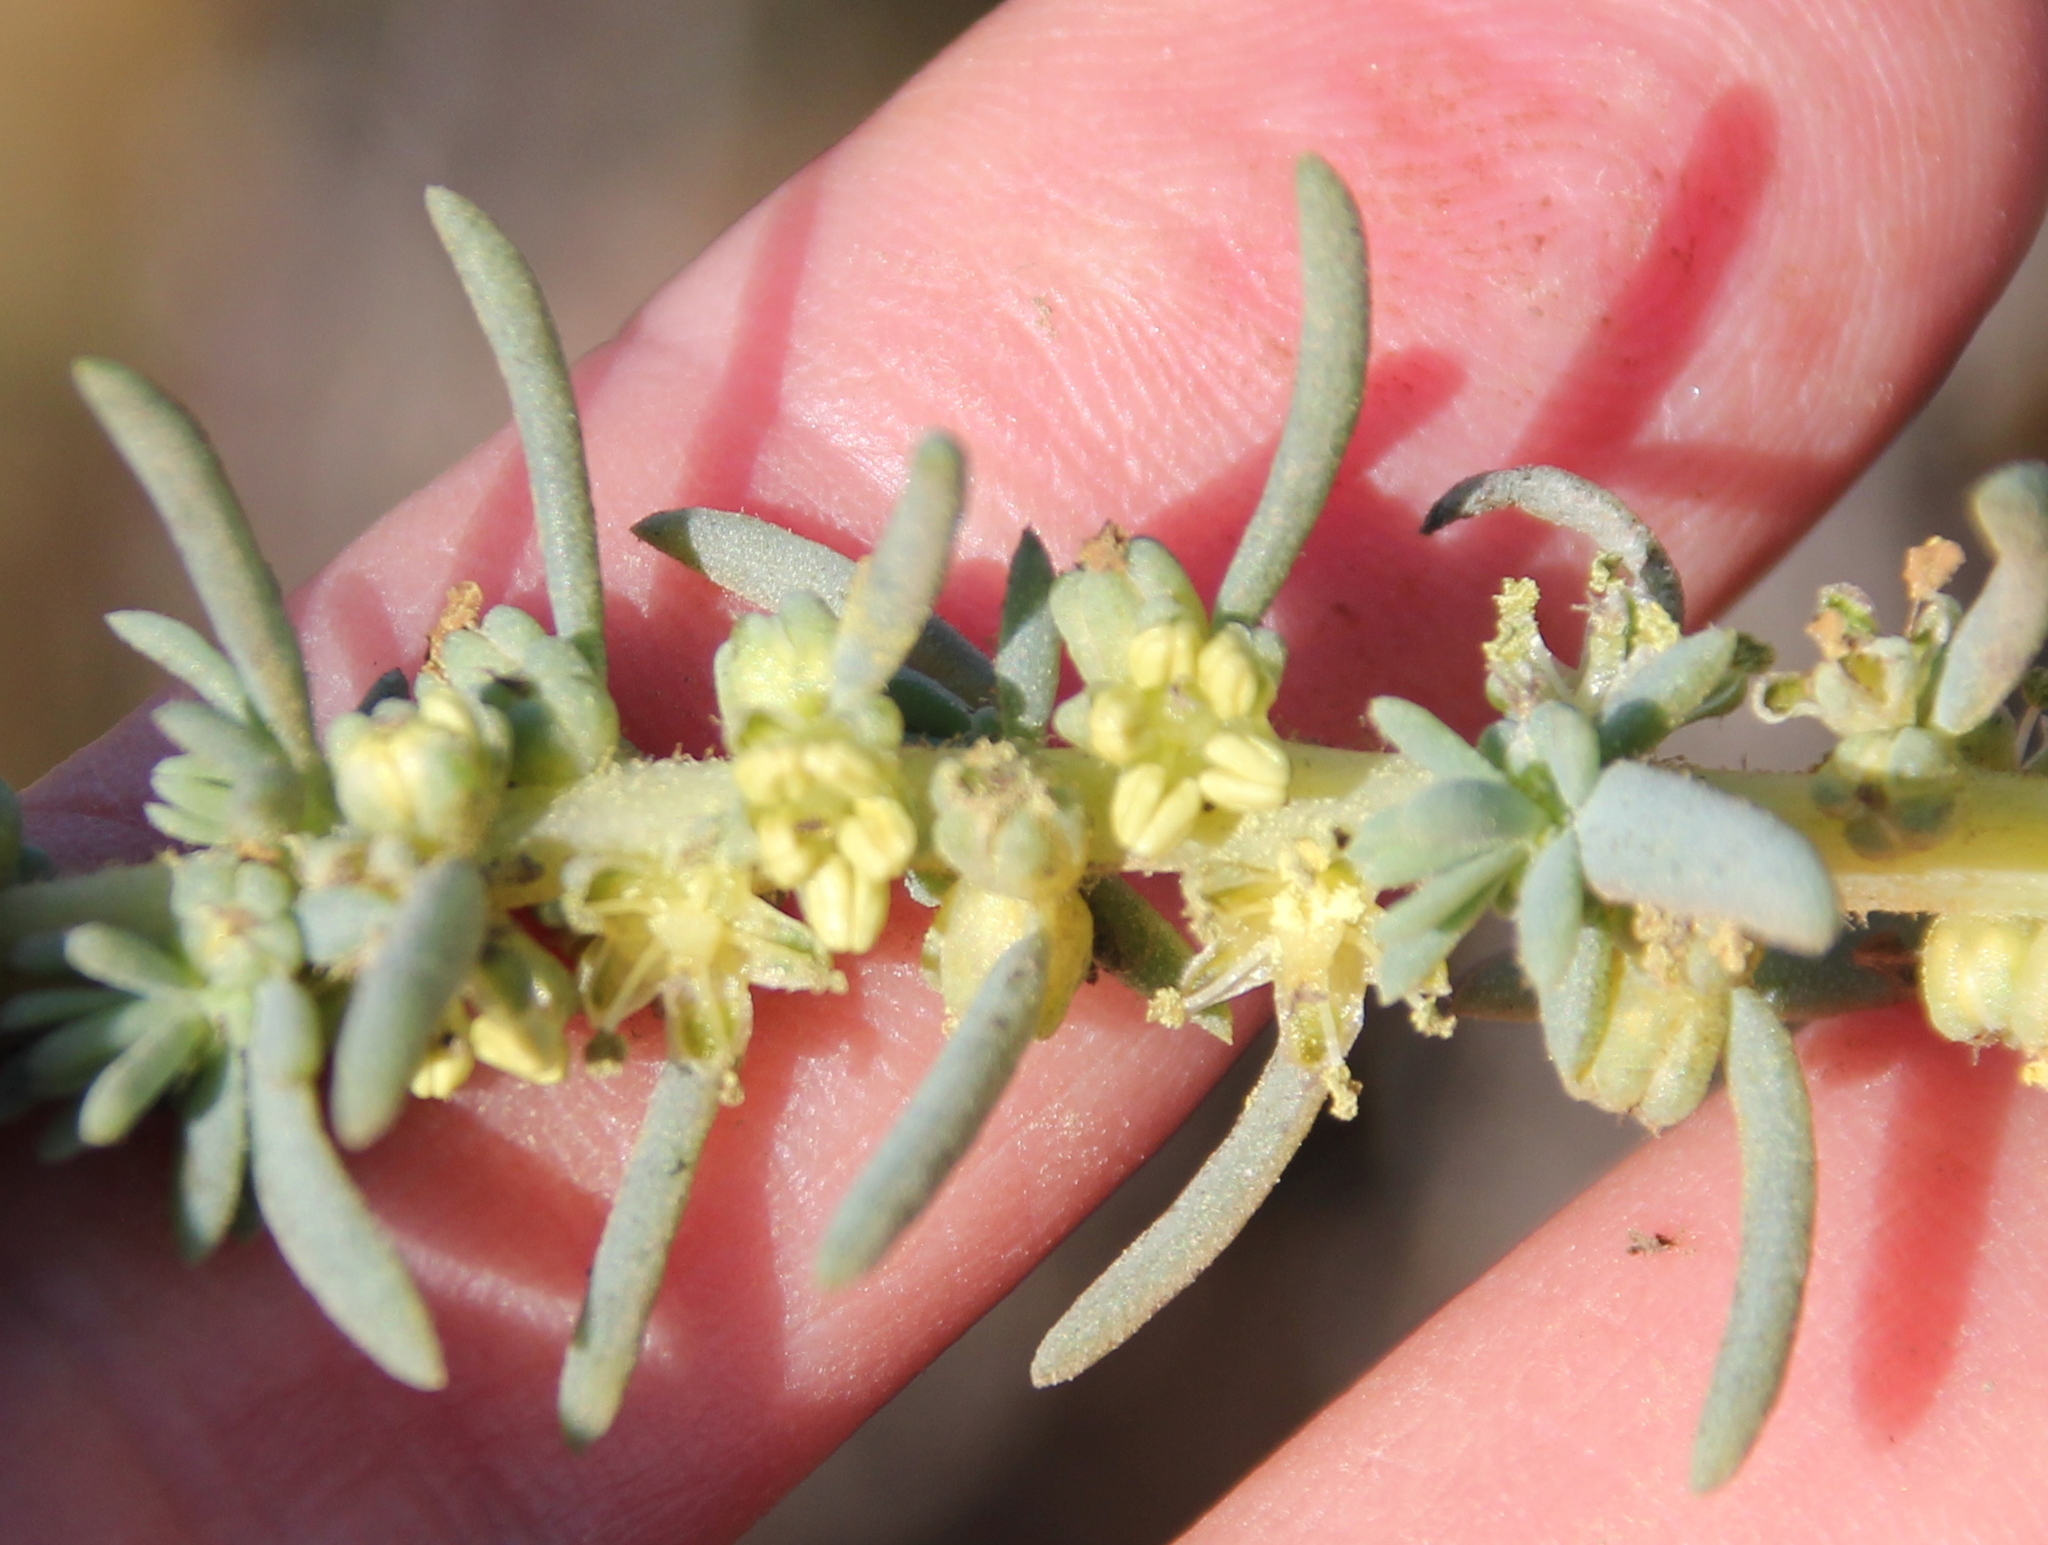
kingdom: Plantae
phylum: Tracheophyta
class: Magnoliopsida
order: Caryophyllales
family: Amaranthaceae
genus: Suaeda
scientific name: Suaeda taxifolia
